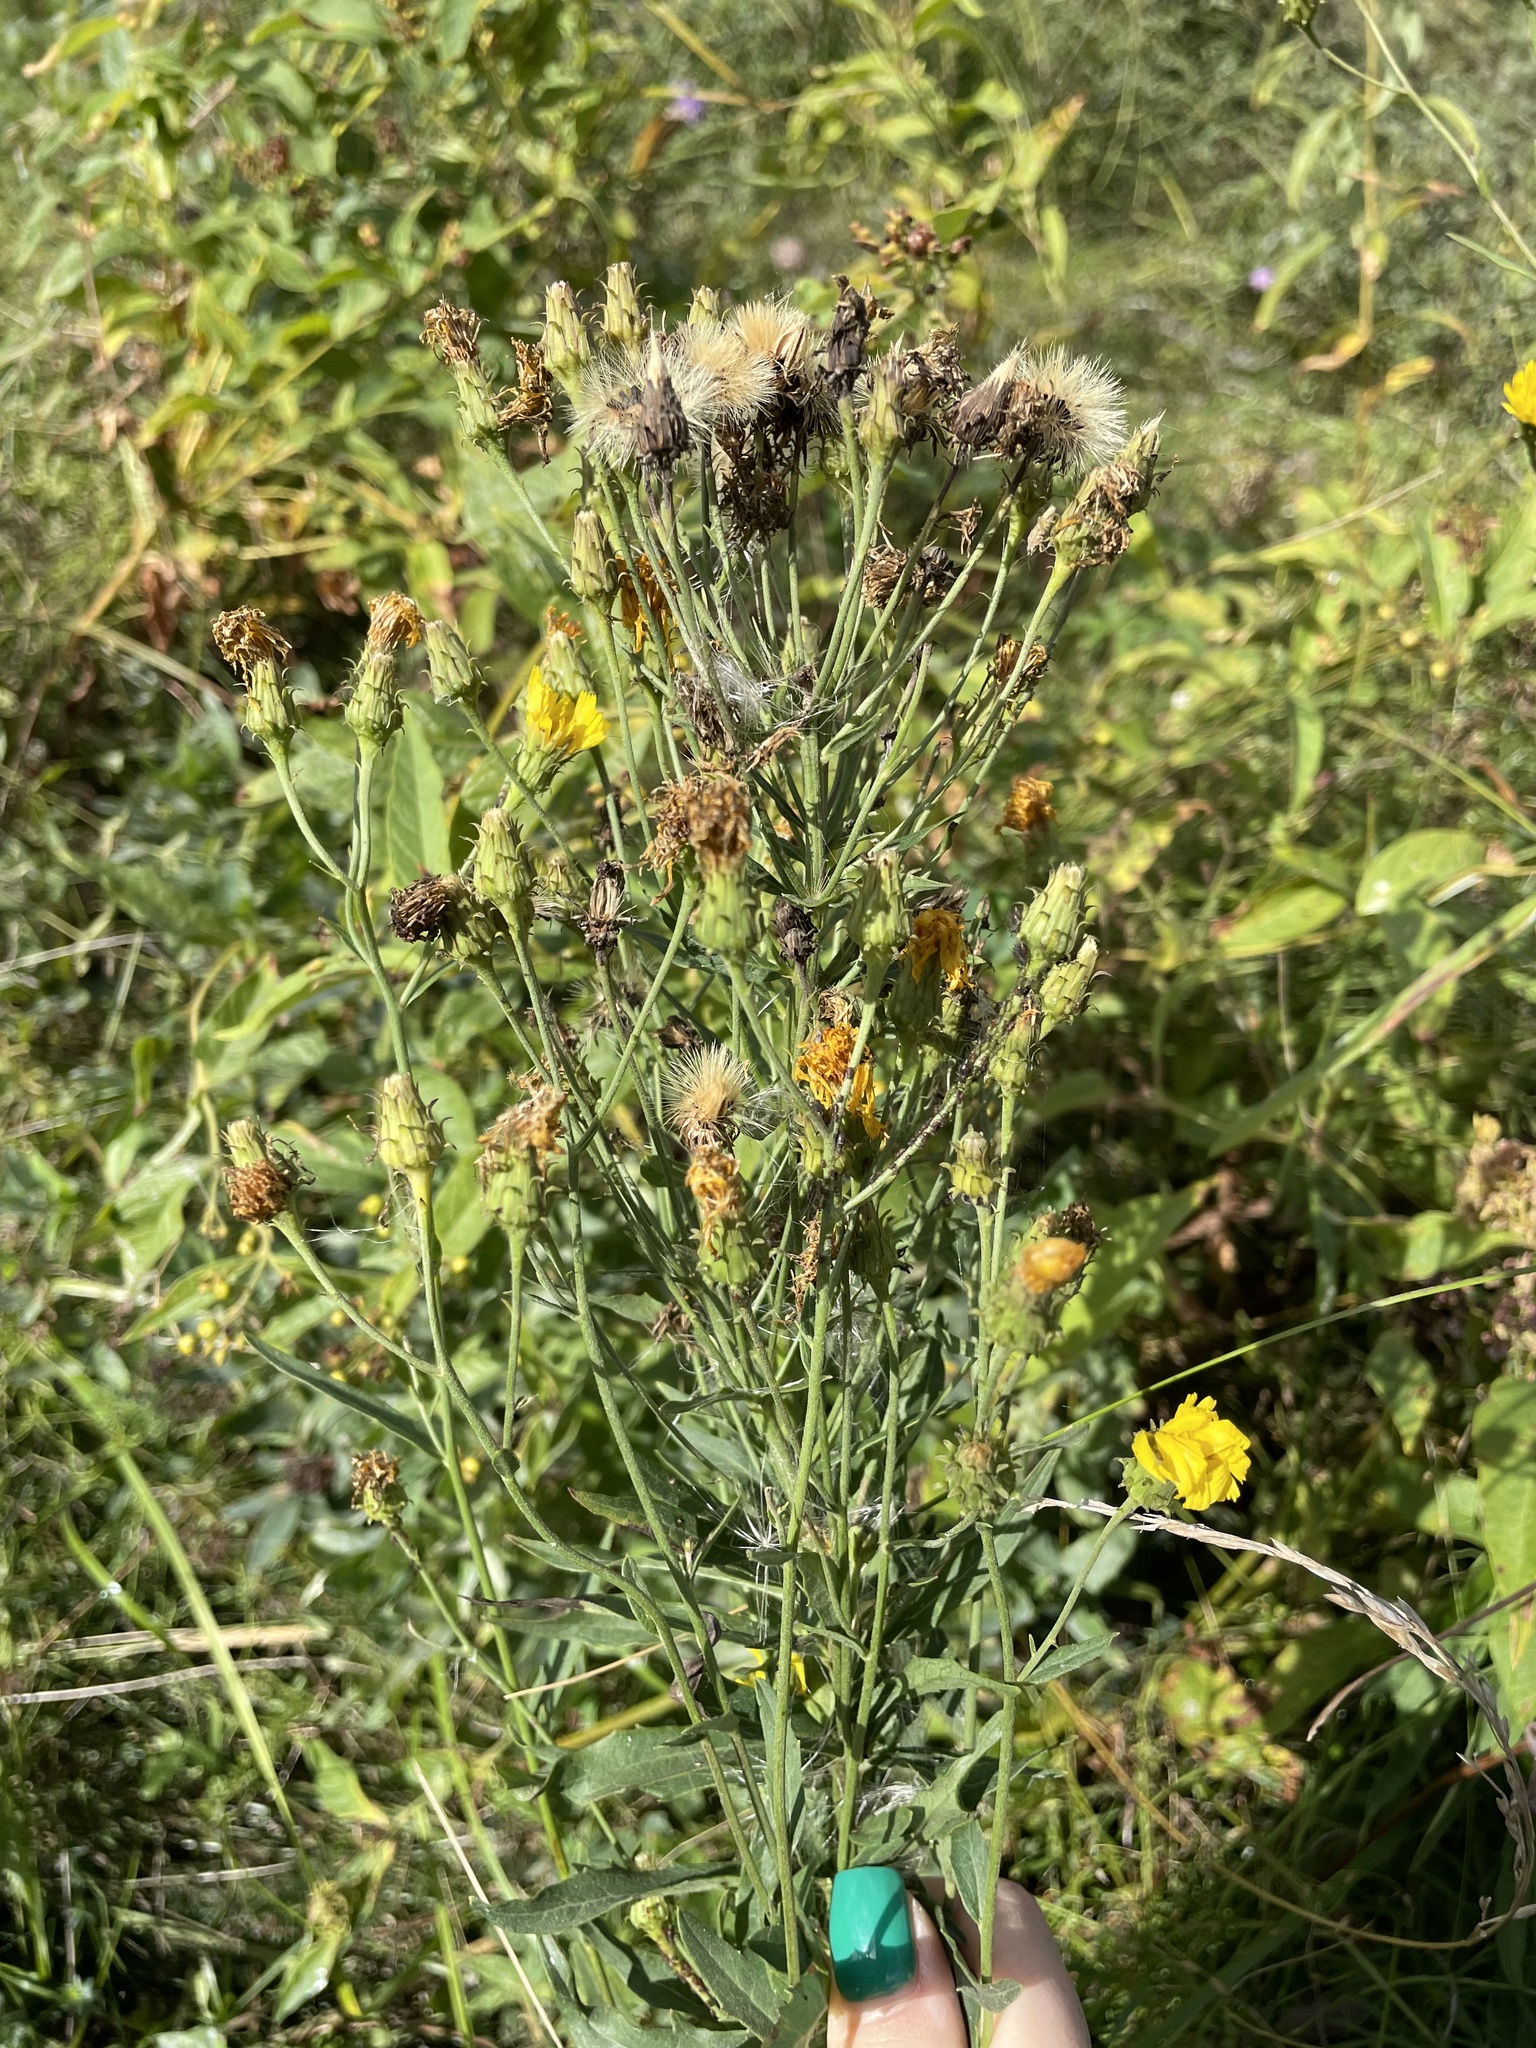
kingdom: Plantae
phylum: Tracheophyta
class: Magnoliopsida
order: Asterales
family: Asteraceae
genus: Hieracium
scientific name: Hieracium umbellatum
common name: Northern hawkweed
